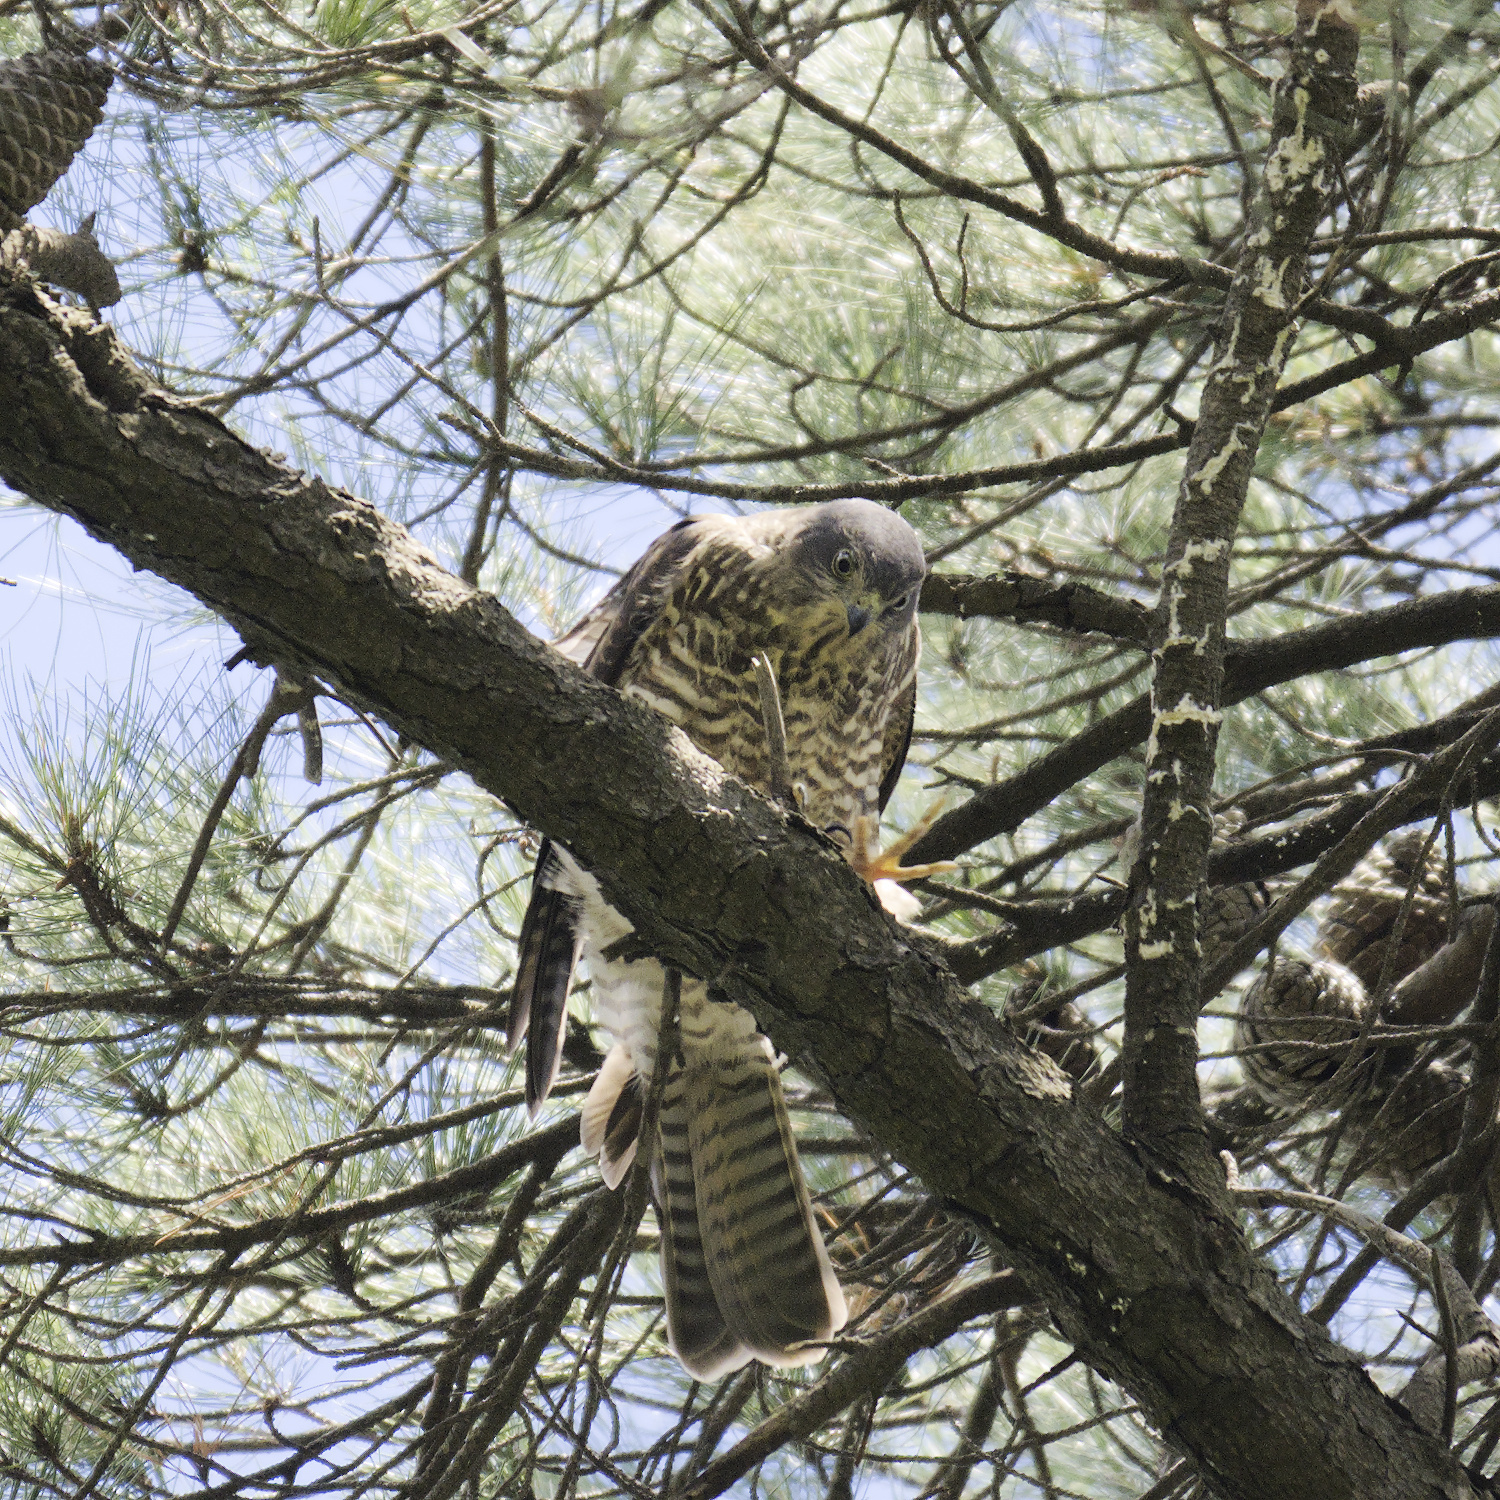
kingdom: Animalia
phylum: Chordata
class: Aves
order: Accipitriformes
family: Accipitridae
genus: Accipiter
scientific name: Accipiter cirrocephalus
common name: Collared sparrowhawk
